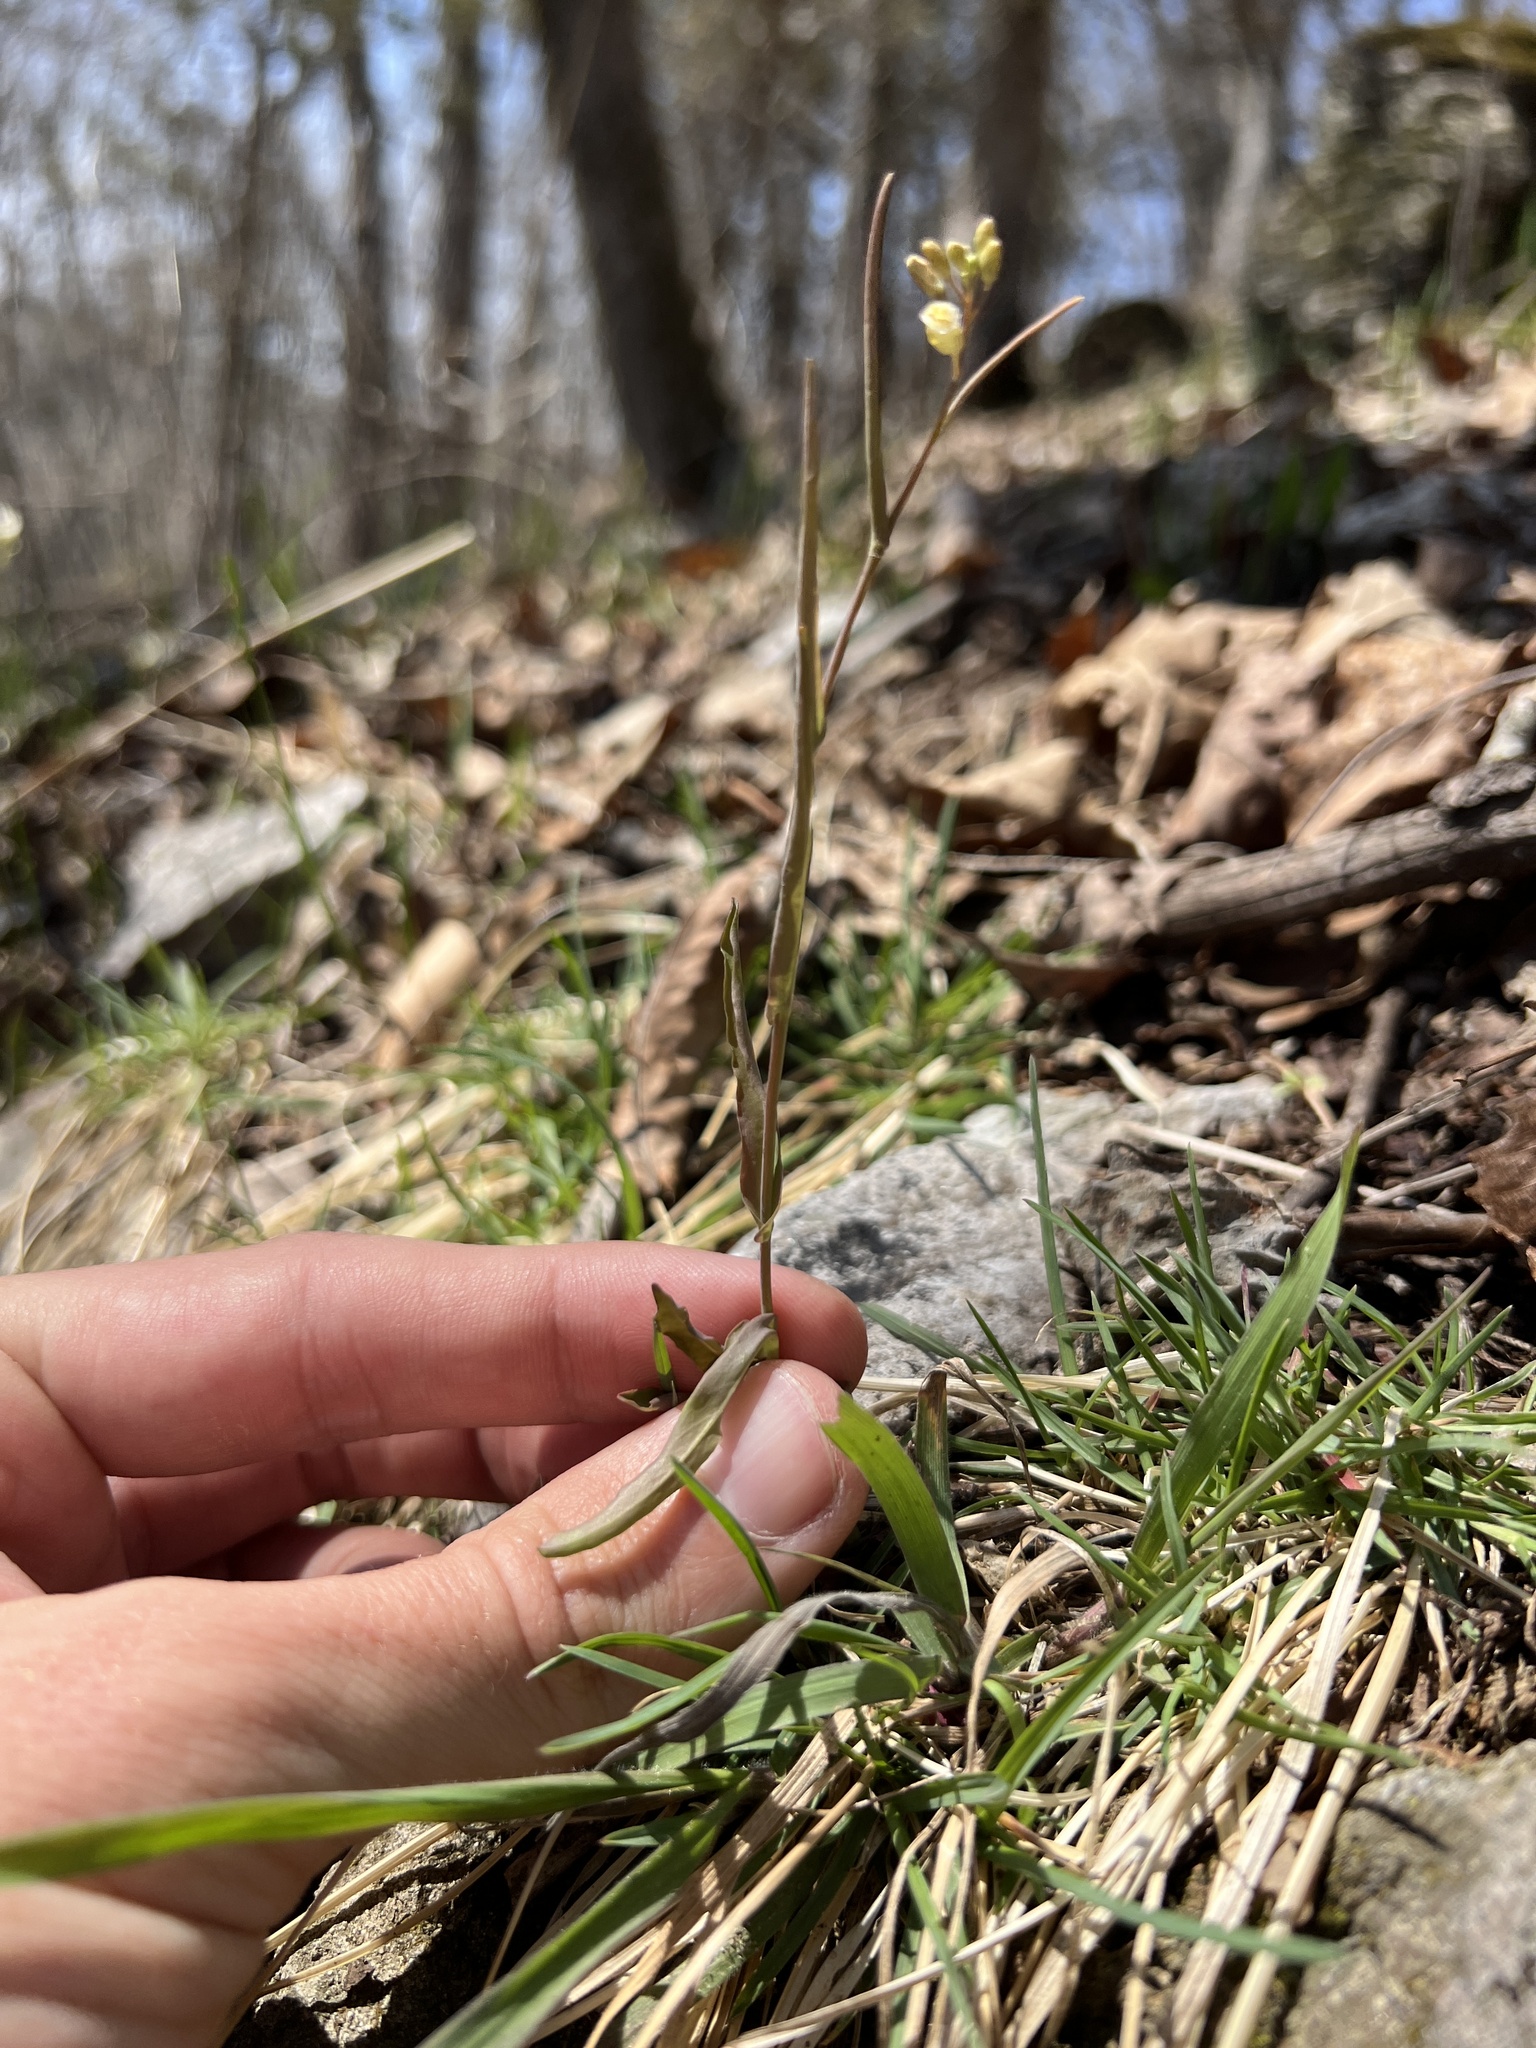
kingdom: Plantae
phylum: Tracheophyta
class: Magnoliopsida
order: Brassicales
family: Brassicaceae
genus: Borodinia
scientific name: Borodinia laevigata
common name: Smooth rockcress
